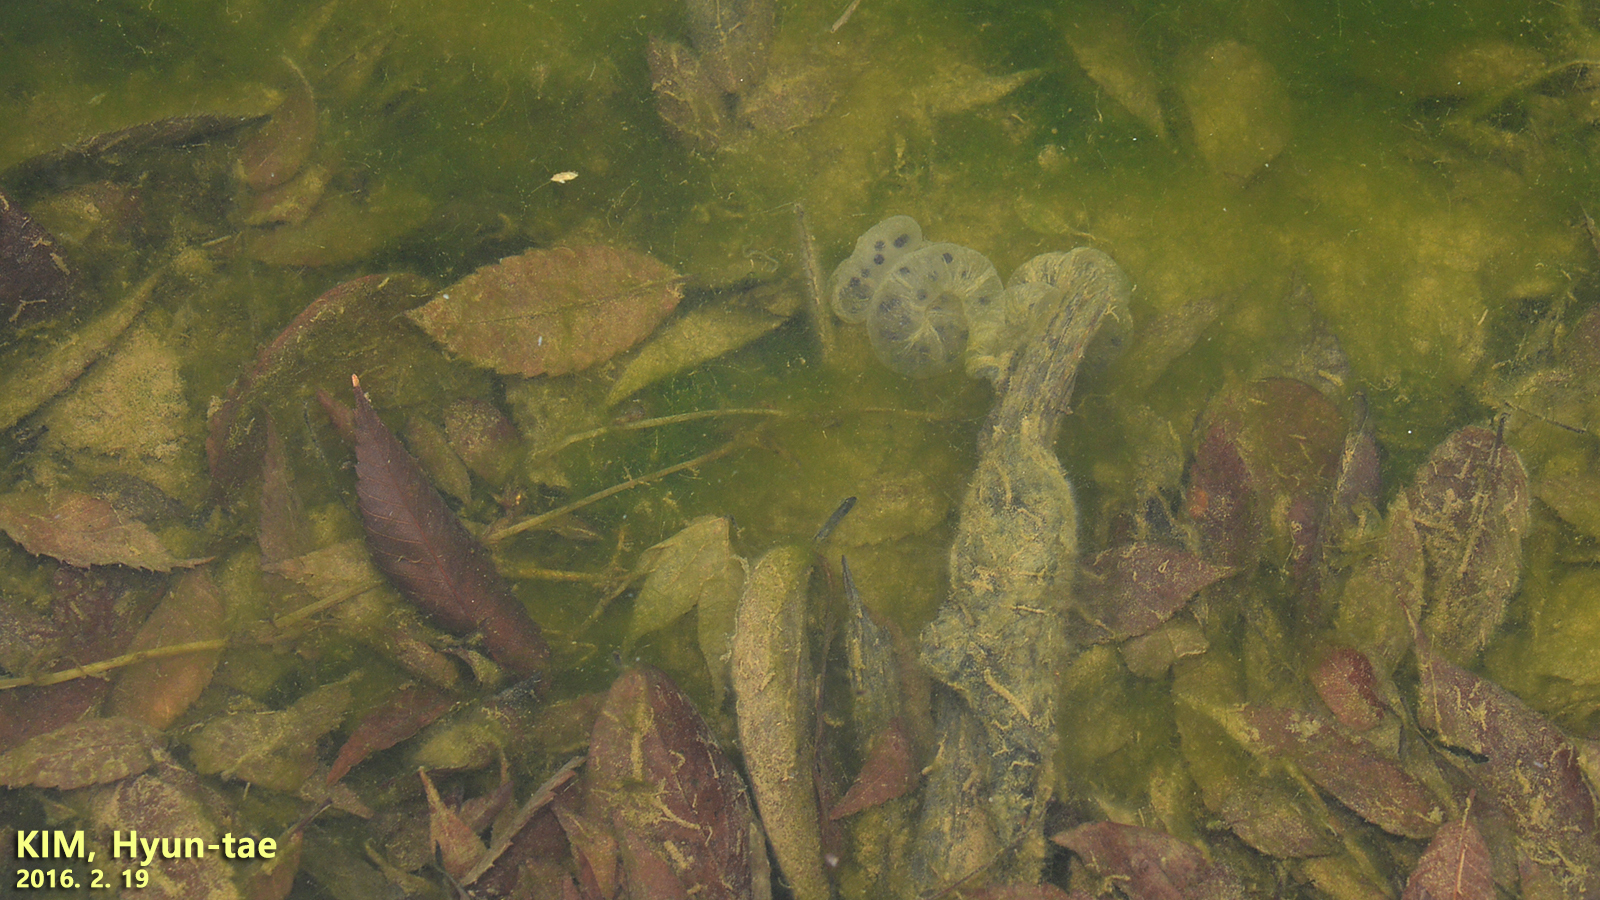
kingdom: Animalia
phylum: Chordata
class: Amphibia
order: Caudata
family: Hynobiidae
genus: Hynobius
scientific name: Hynobius leechii
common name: Gensan salamander
